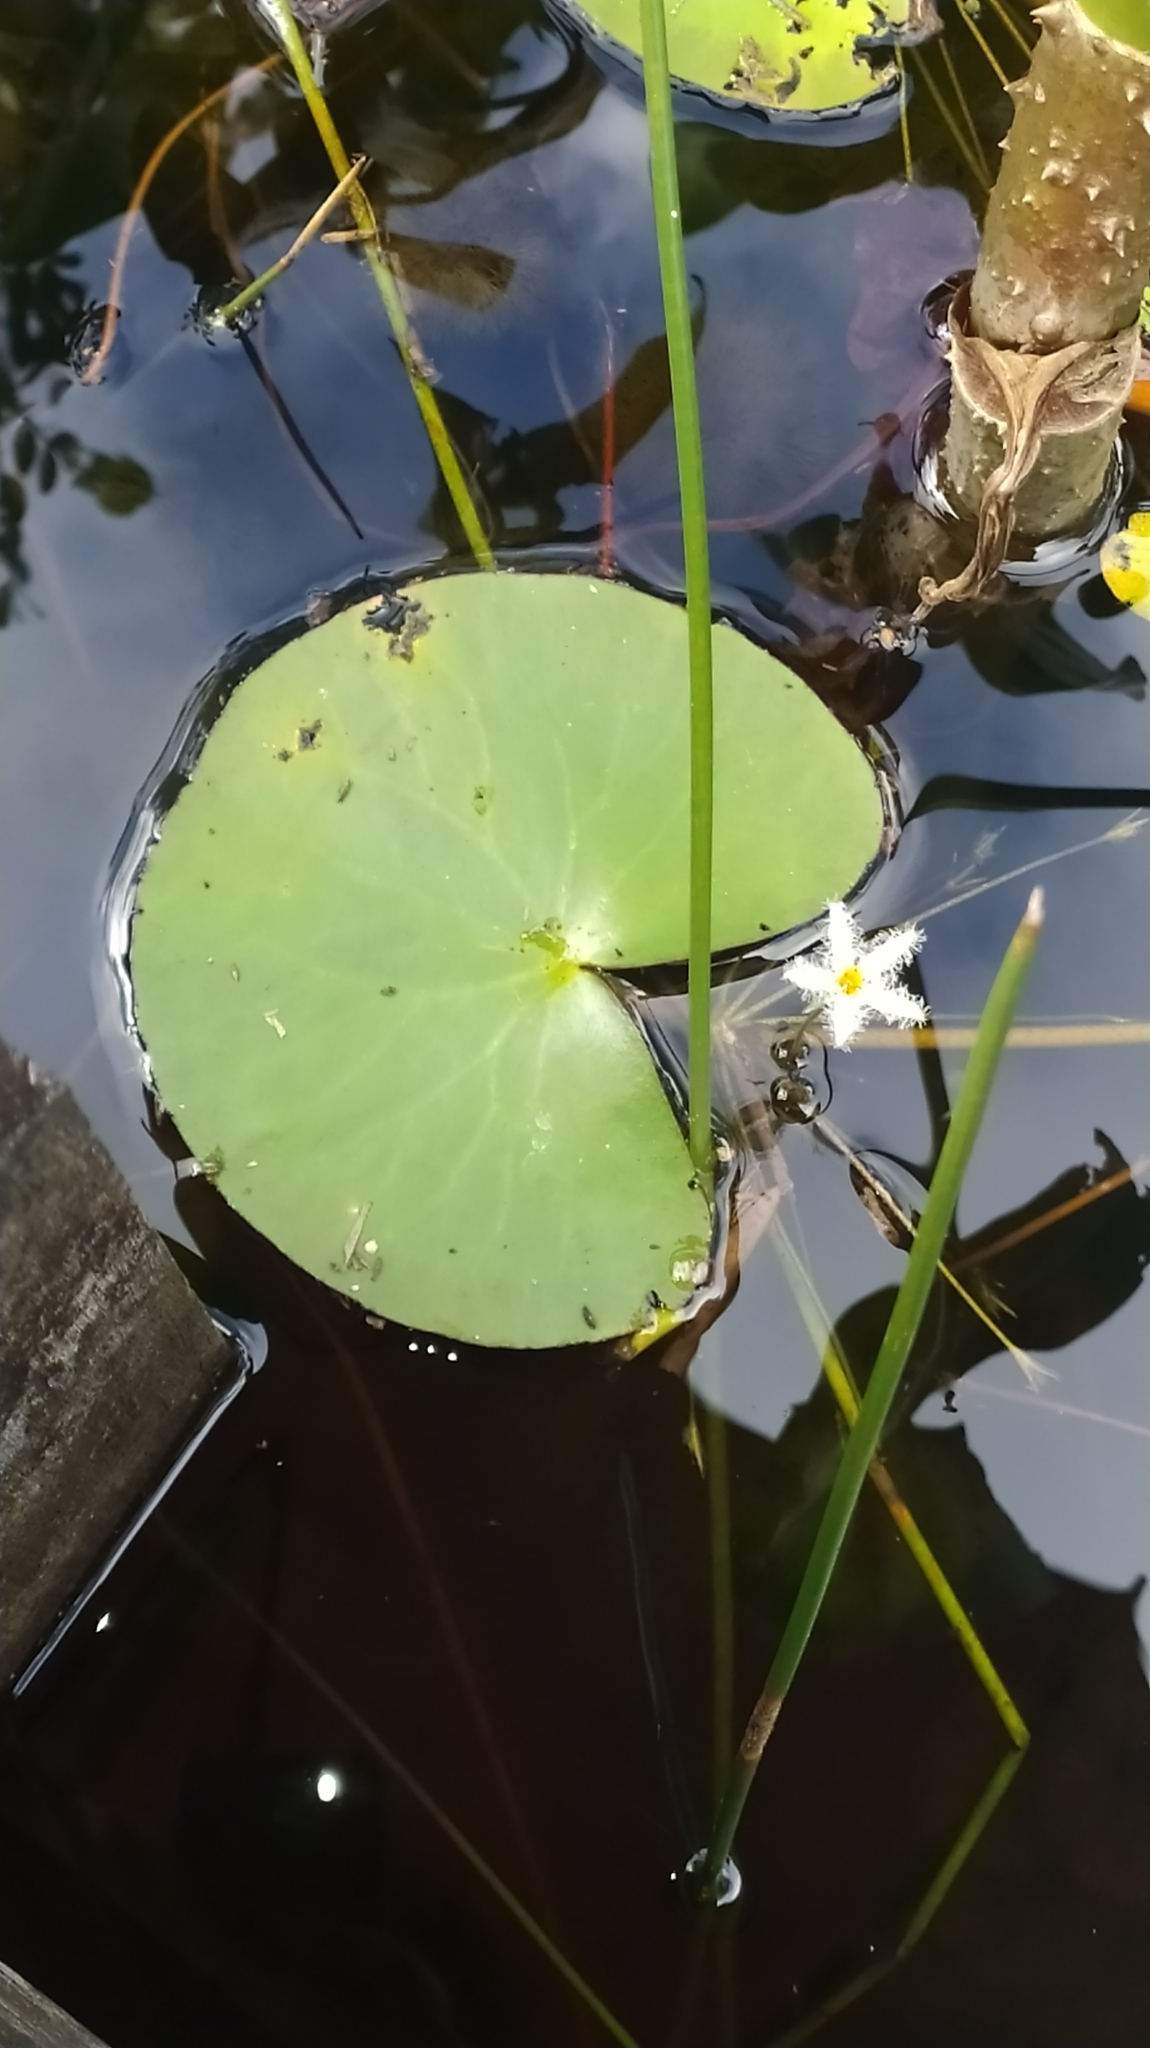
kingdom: Plantae
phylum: Tracheophyta
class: Magnoliopsida
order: Asterales
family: Menyanthaceae
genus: Nymphoides
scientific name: Nymphoides humboldtiana
